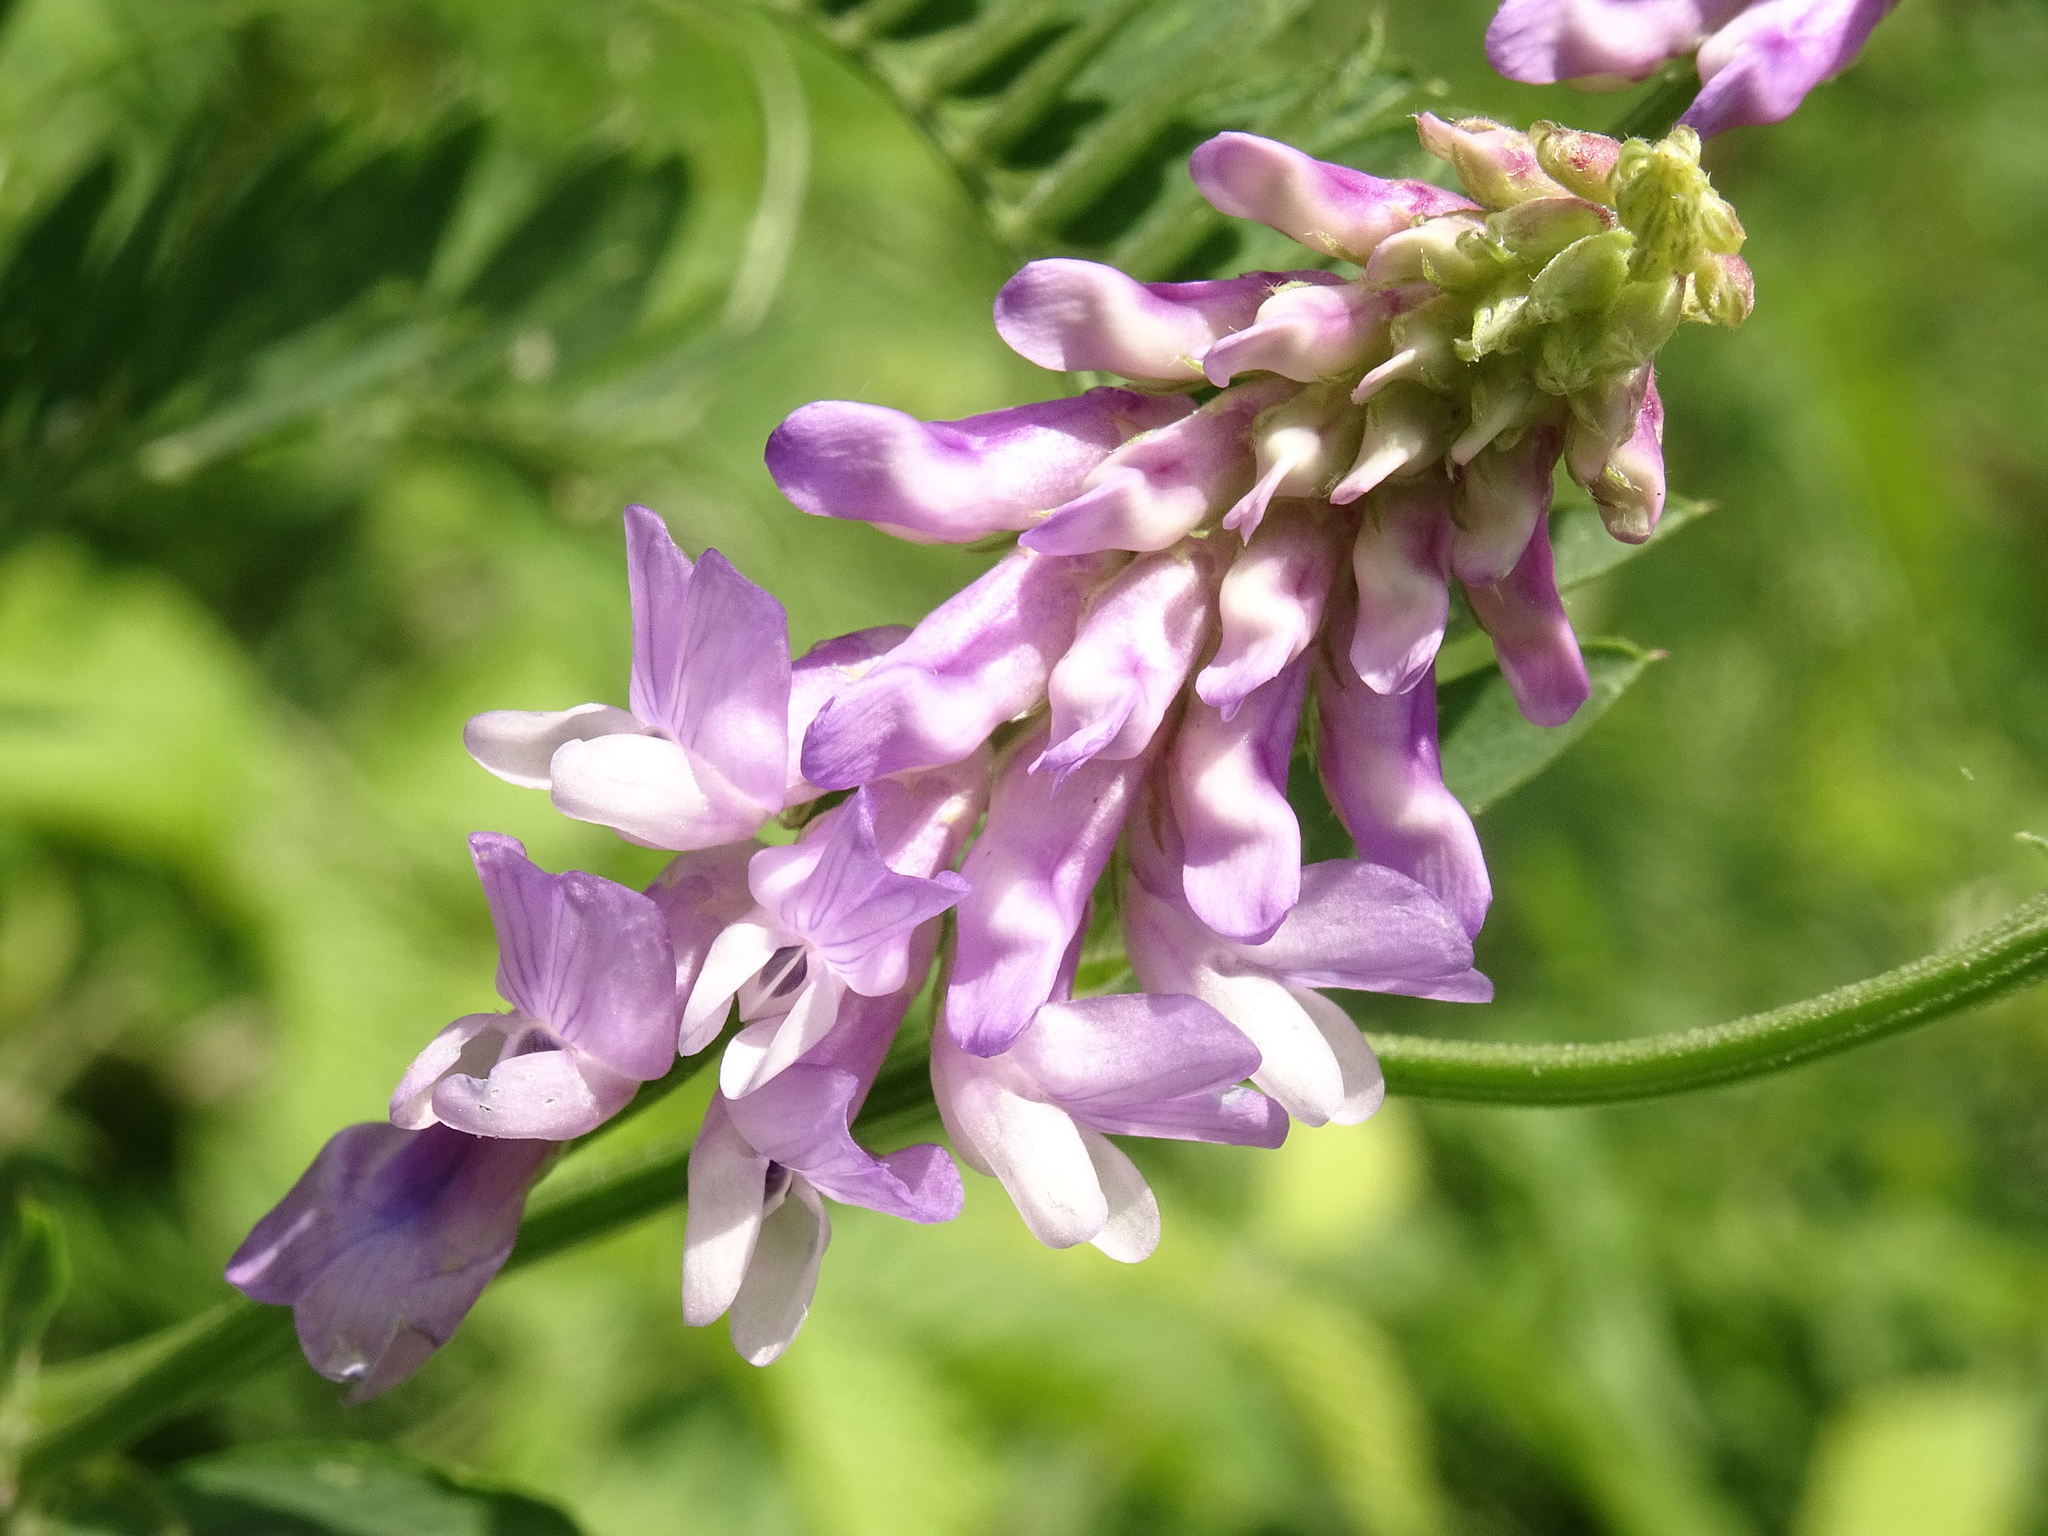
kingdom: Plantae
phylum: Tracheophyta
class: Magnoliopsida
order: Fabales
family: Fabaceae
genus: Vicia
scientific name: Vicia cracca
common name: Bird vetch
